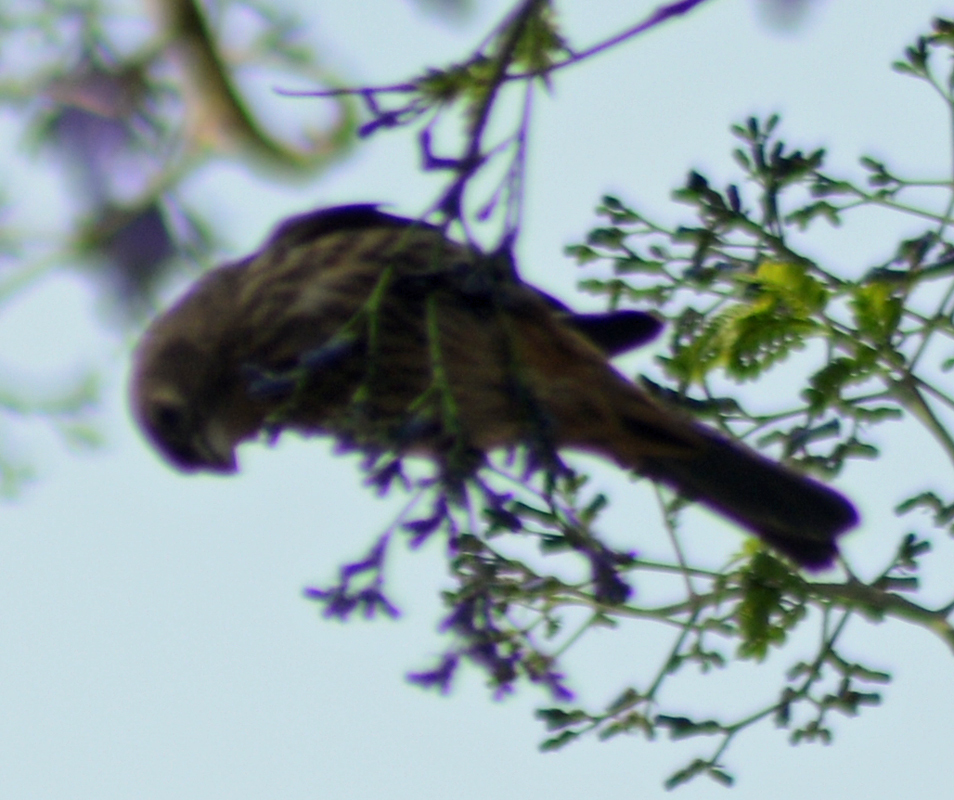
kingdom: Animalia
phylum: Chordata
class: Aves
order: Passeriformes
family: Fringillidae
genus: Haemorhous
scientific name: Haemorhous mexicanus
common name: House finch
